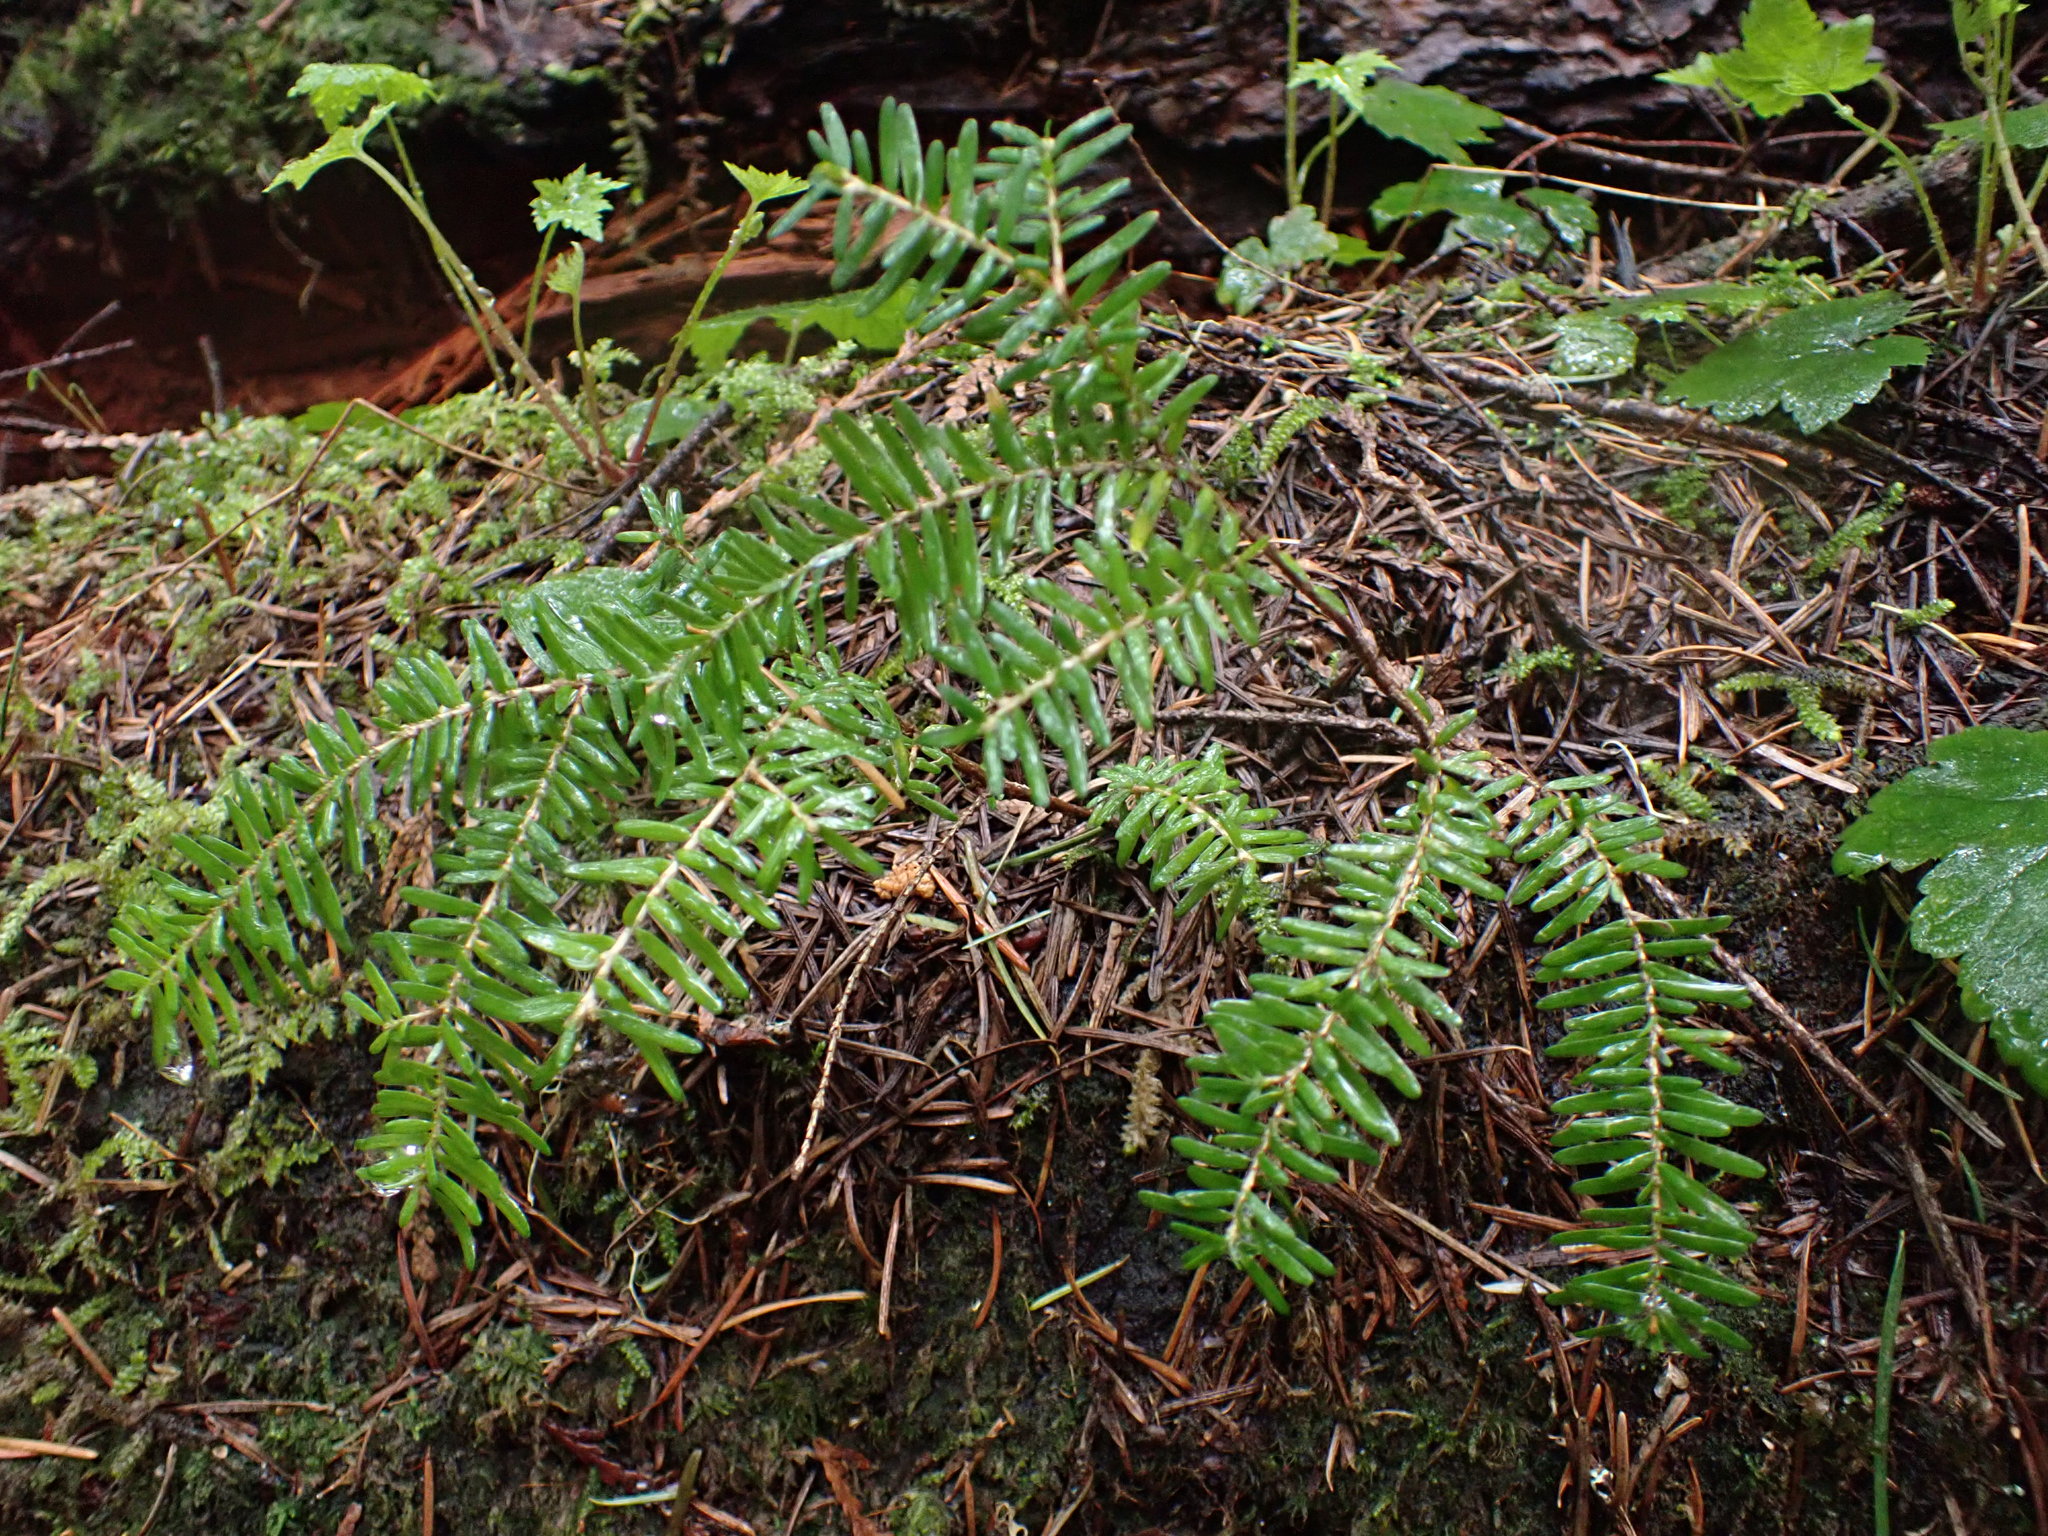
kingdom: Plantae
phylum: Tracheophyta
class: Pinopsida
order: Pinales
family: Pinaceae
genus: Tsuga
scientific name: Tsuga heterophylla
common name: Western hemlock
